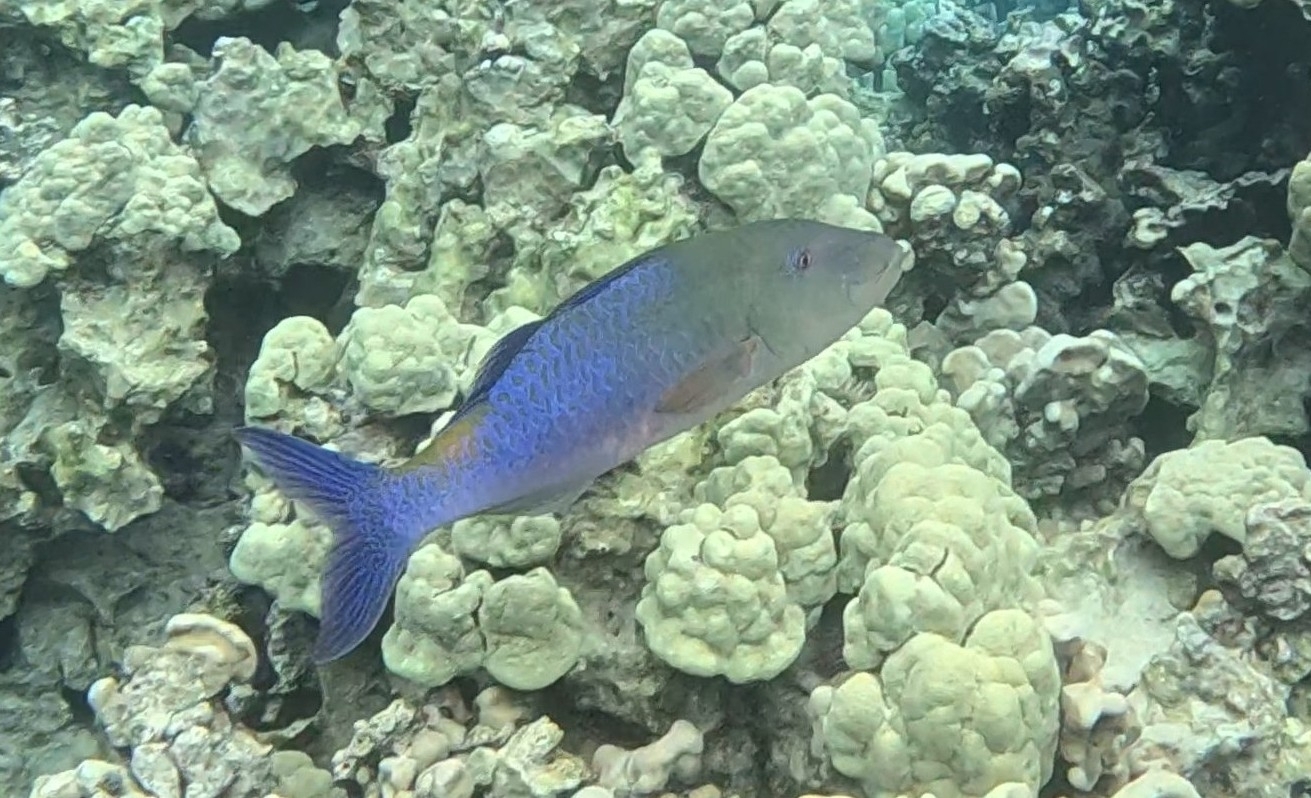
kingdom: Animalia
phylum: Chordata
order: Perciformes
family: Mullidae
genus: Parupeneus
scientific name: Parupeneus cyclostomus
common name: Goldsaddle goatfish
